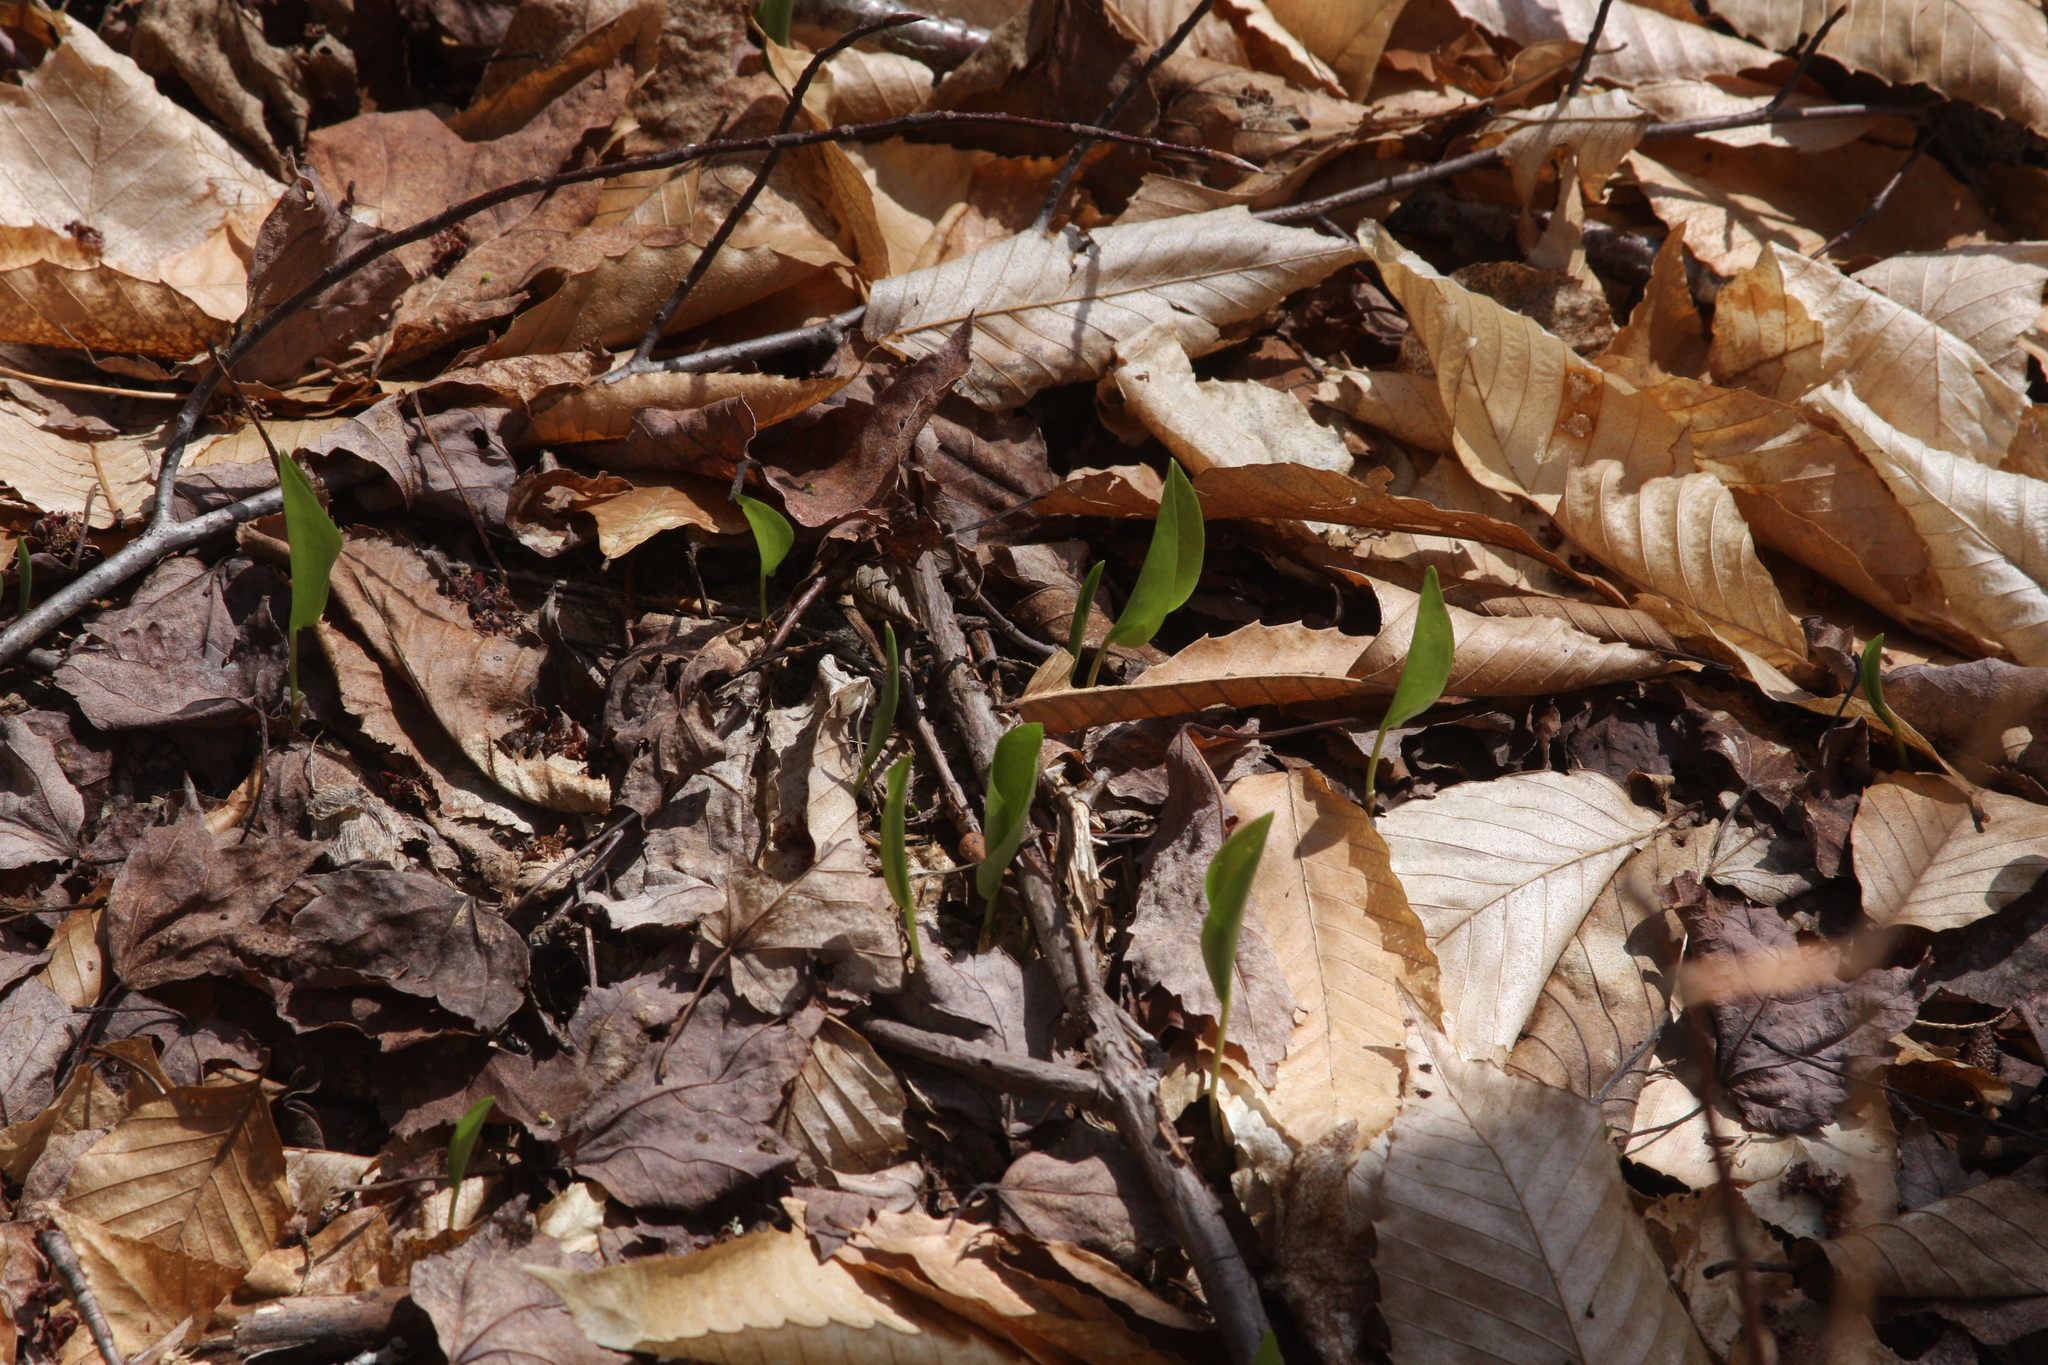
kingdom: Plantae
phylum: Tracheophyta
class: Liliopsida
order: Asparagales
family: Asparagaceae
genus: Maianthemum
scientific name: Maianthemum canadense
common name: False lily-of-the-valley
